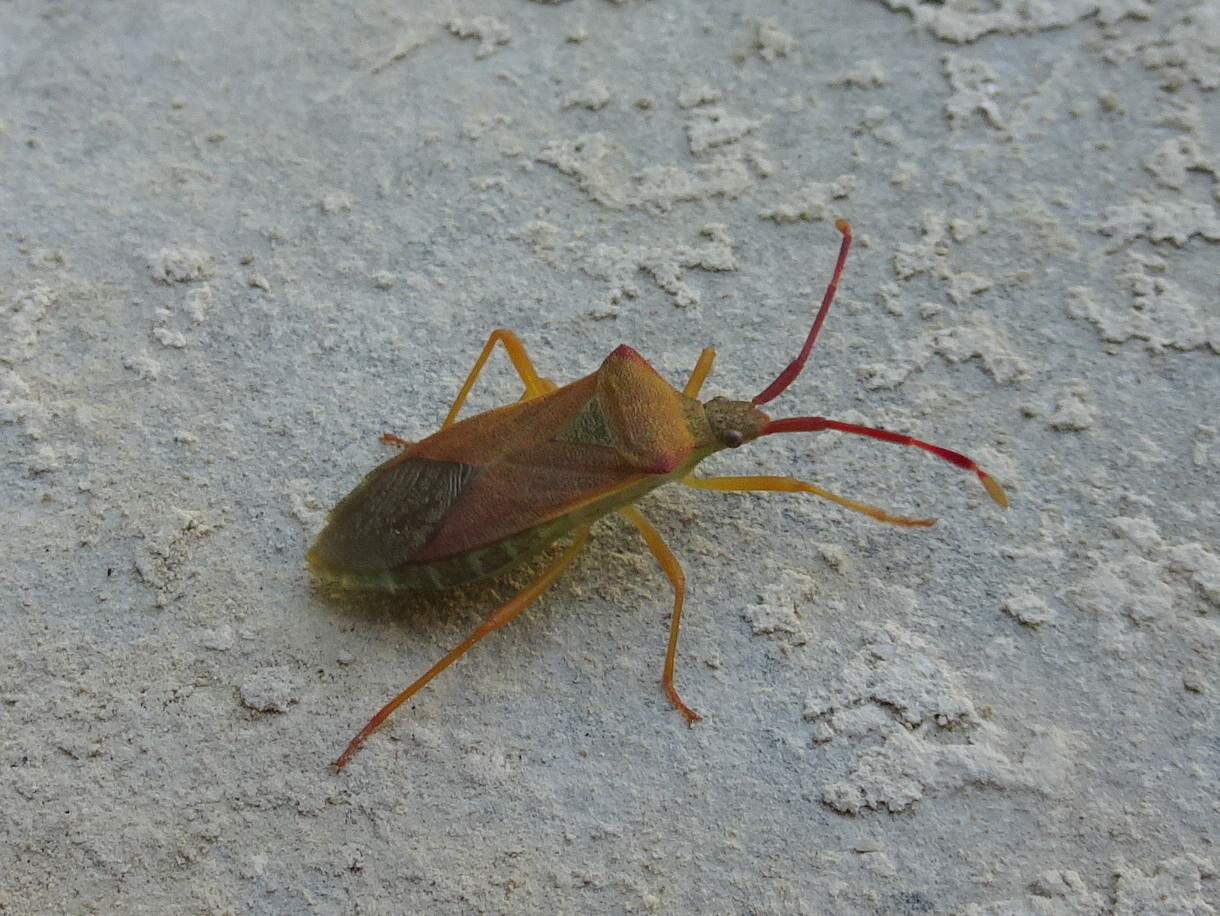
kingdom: Animalia
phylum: Arthropoda
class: Insecta
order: Hemiptera
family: Coreidae
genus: Gonocerus
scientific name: Gonocerus acuteangulatus
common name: Box bug
